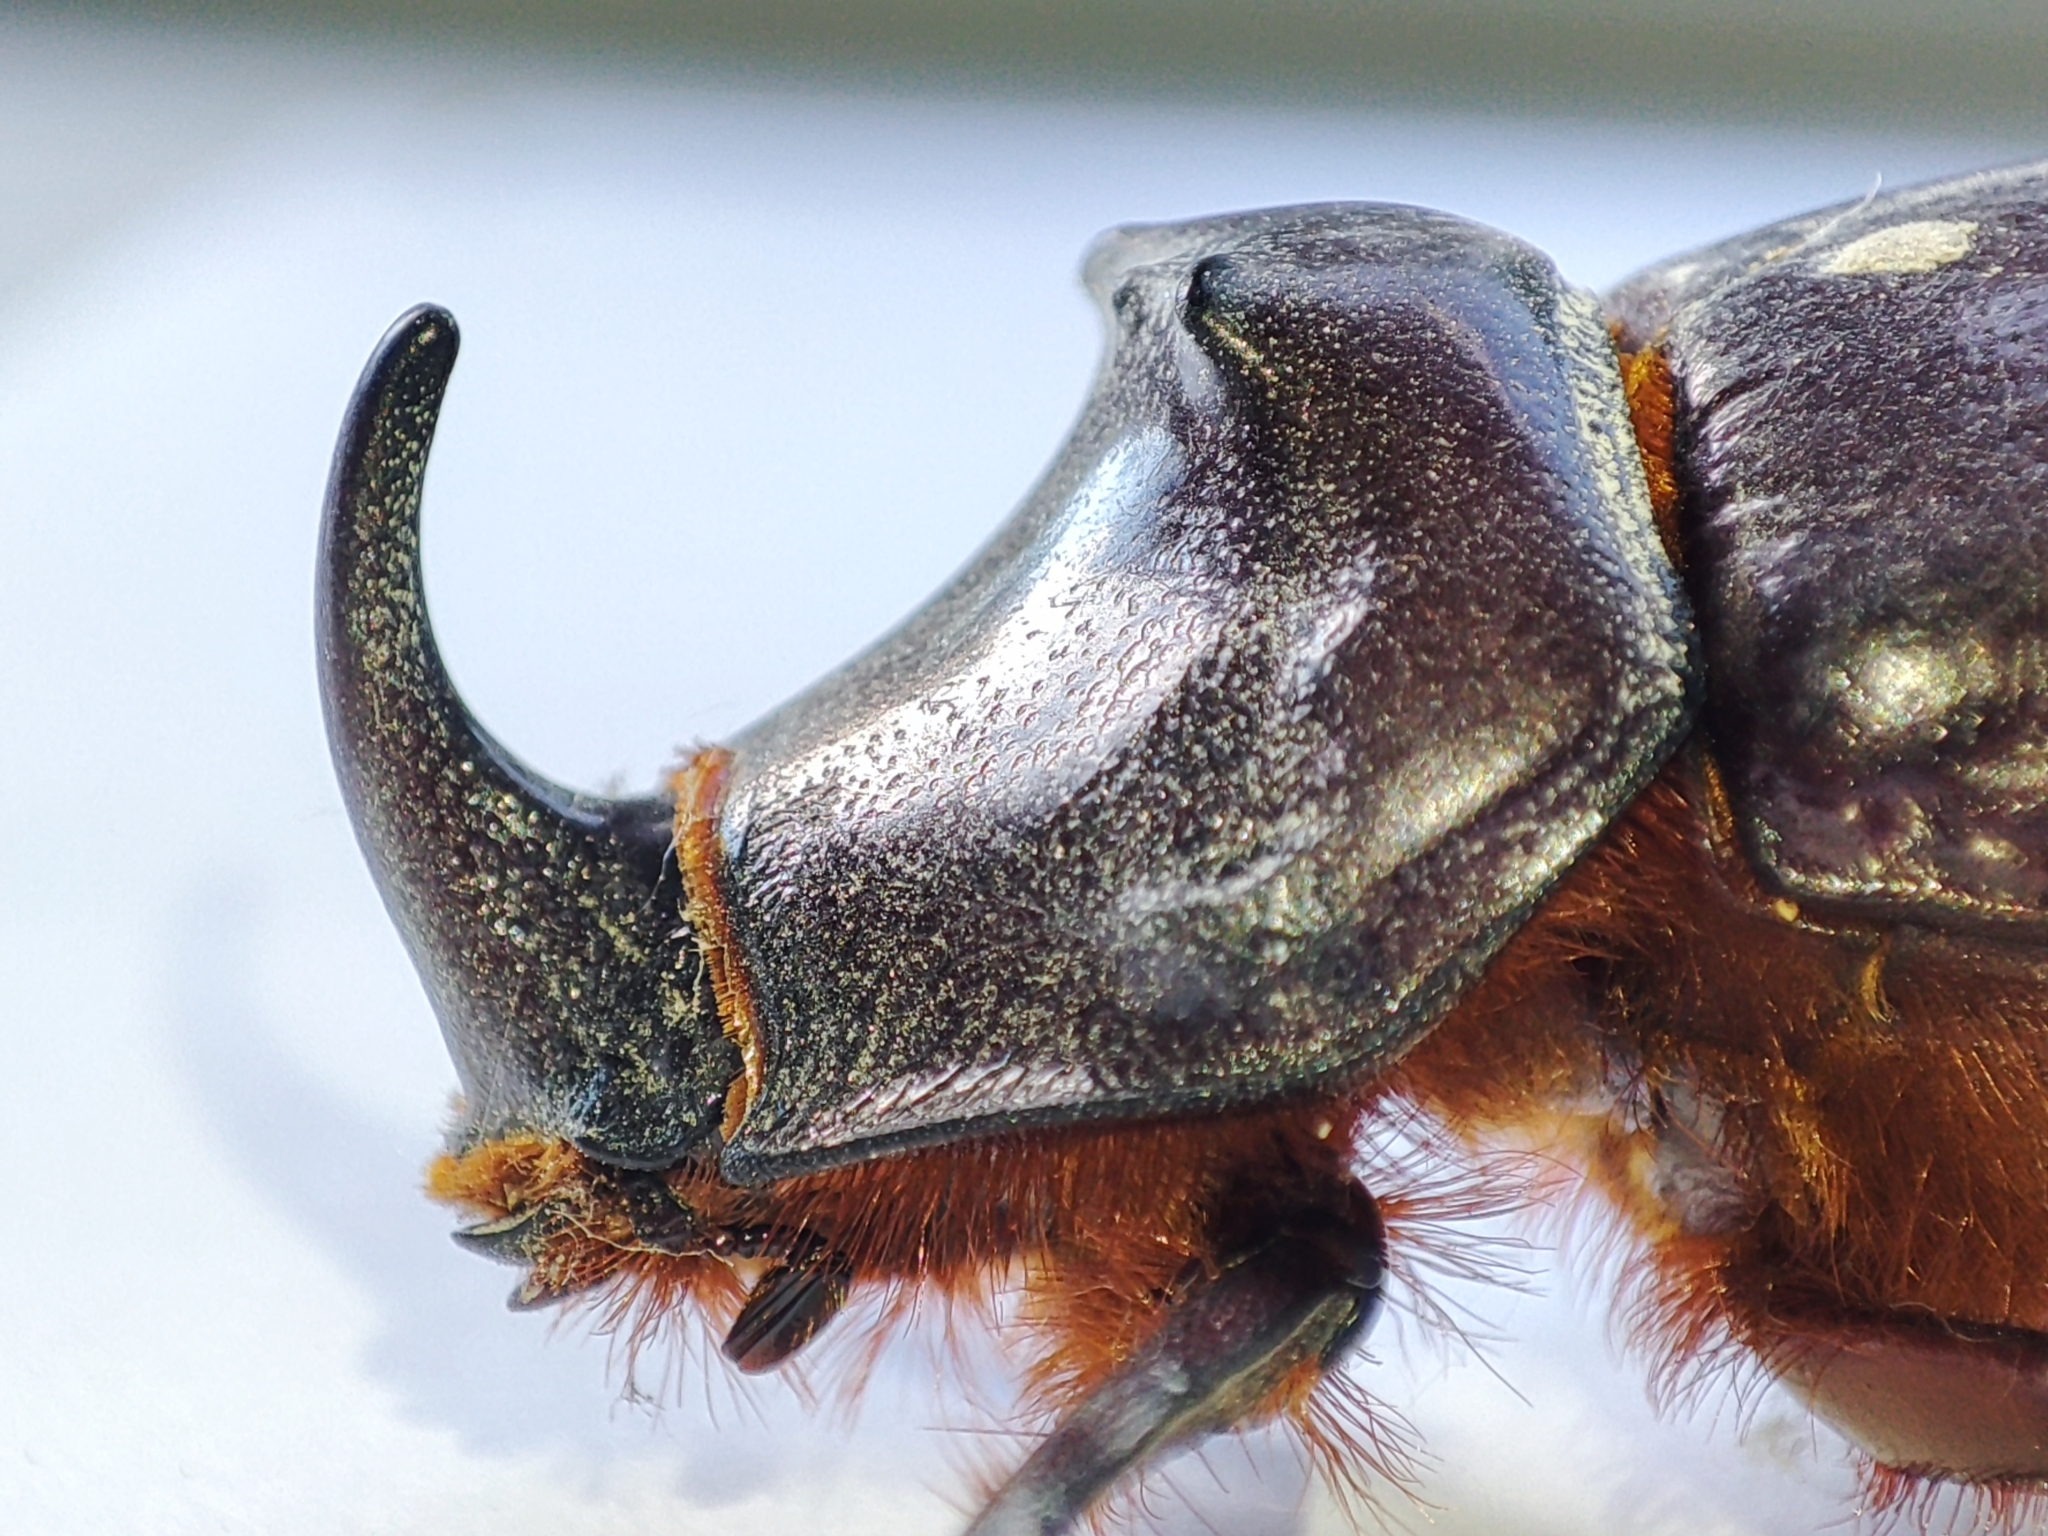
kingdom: Animalia
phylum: Arthropoda
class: Insecta
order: Coleoptera
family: Scarabaeidae
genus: Oryctes
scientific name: Oryctes nasicornis
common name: European rhinoceros beetle
